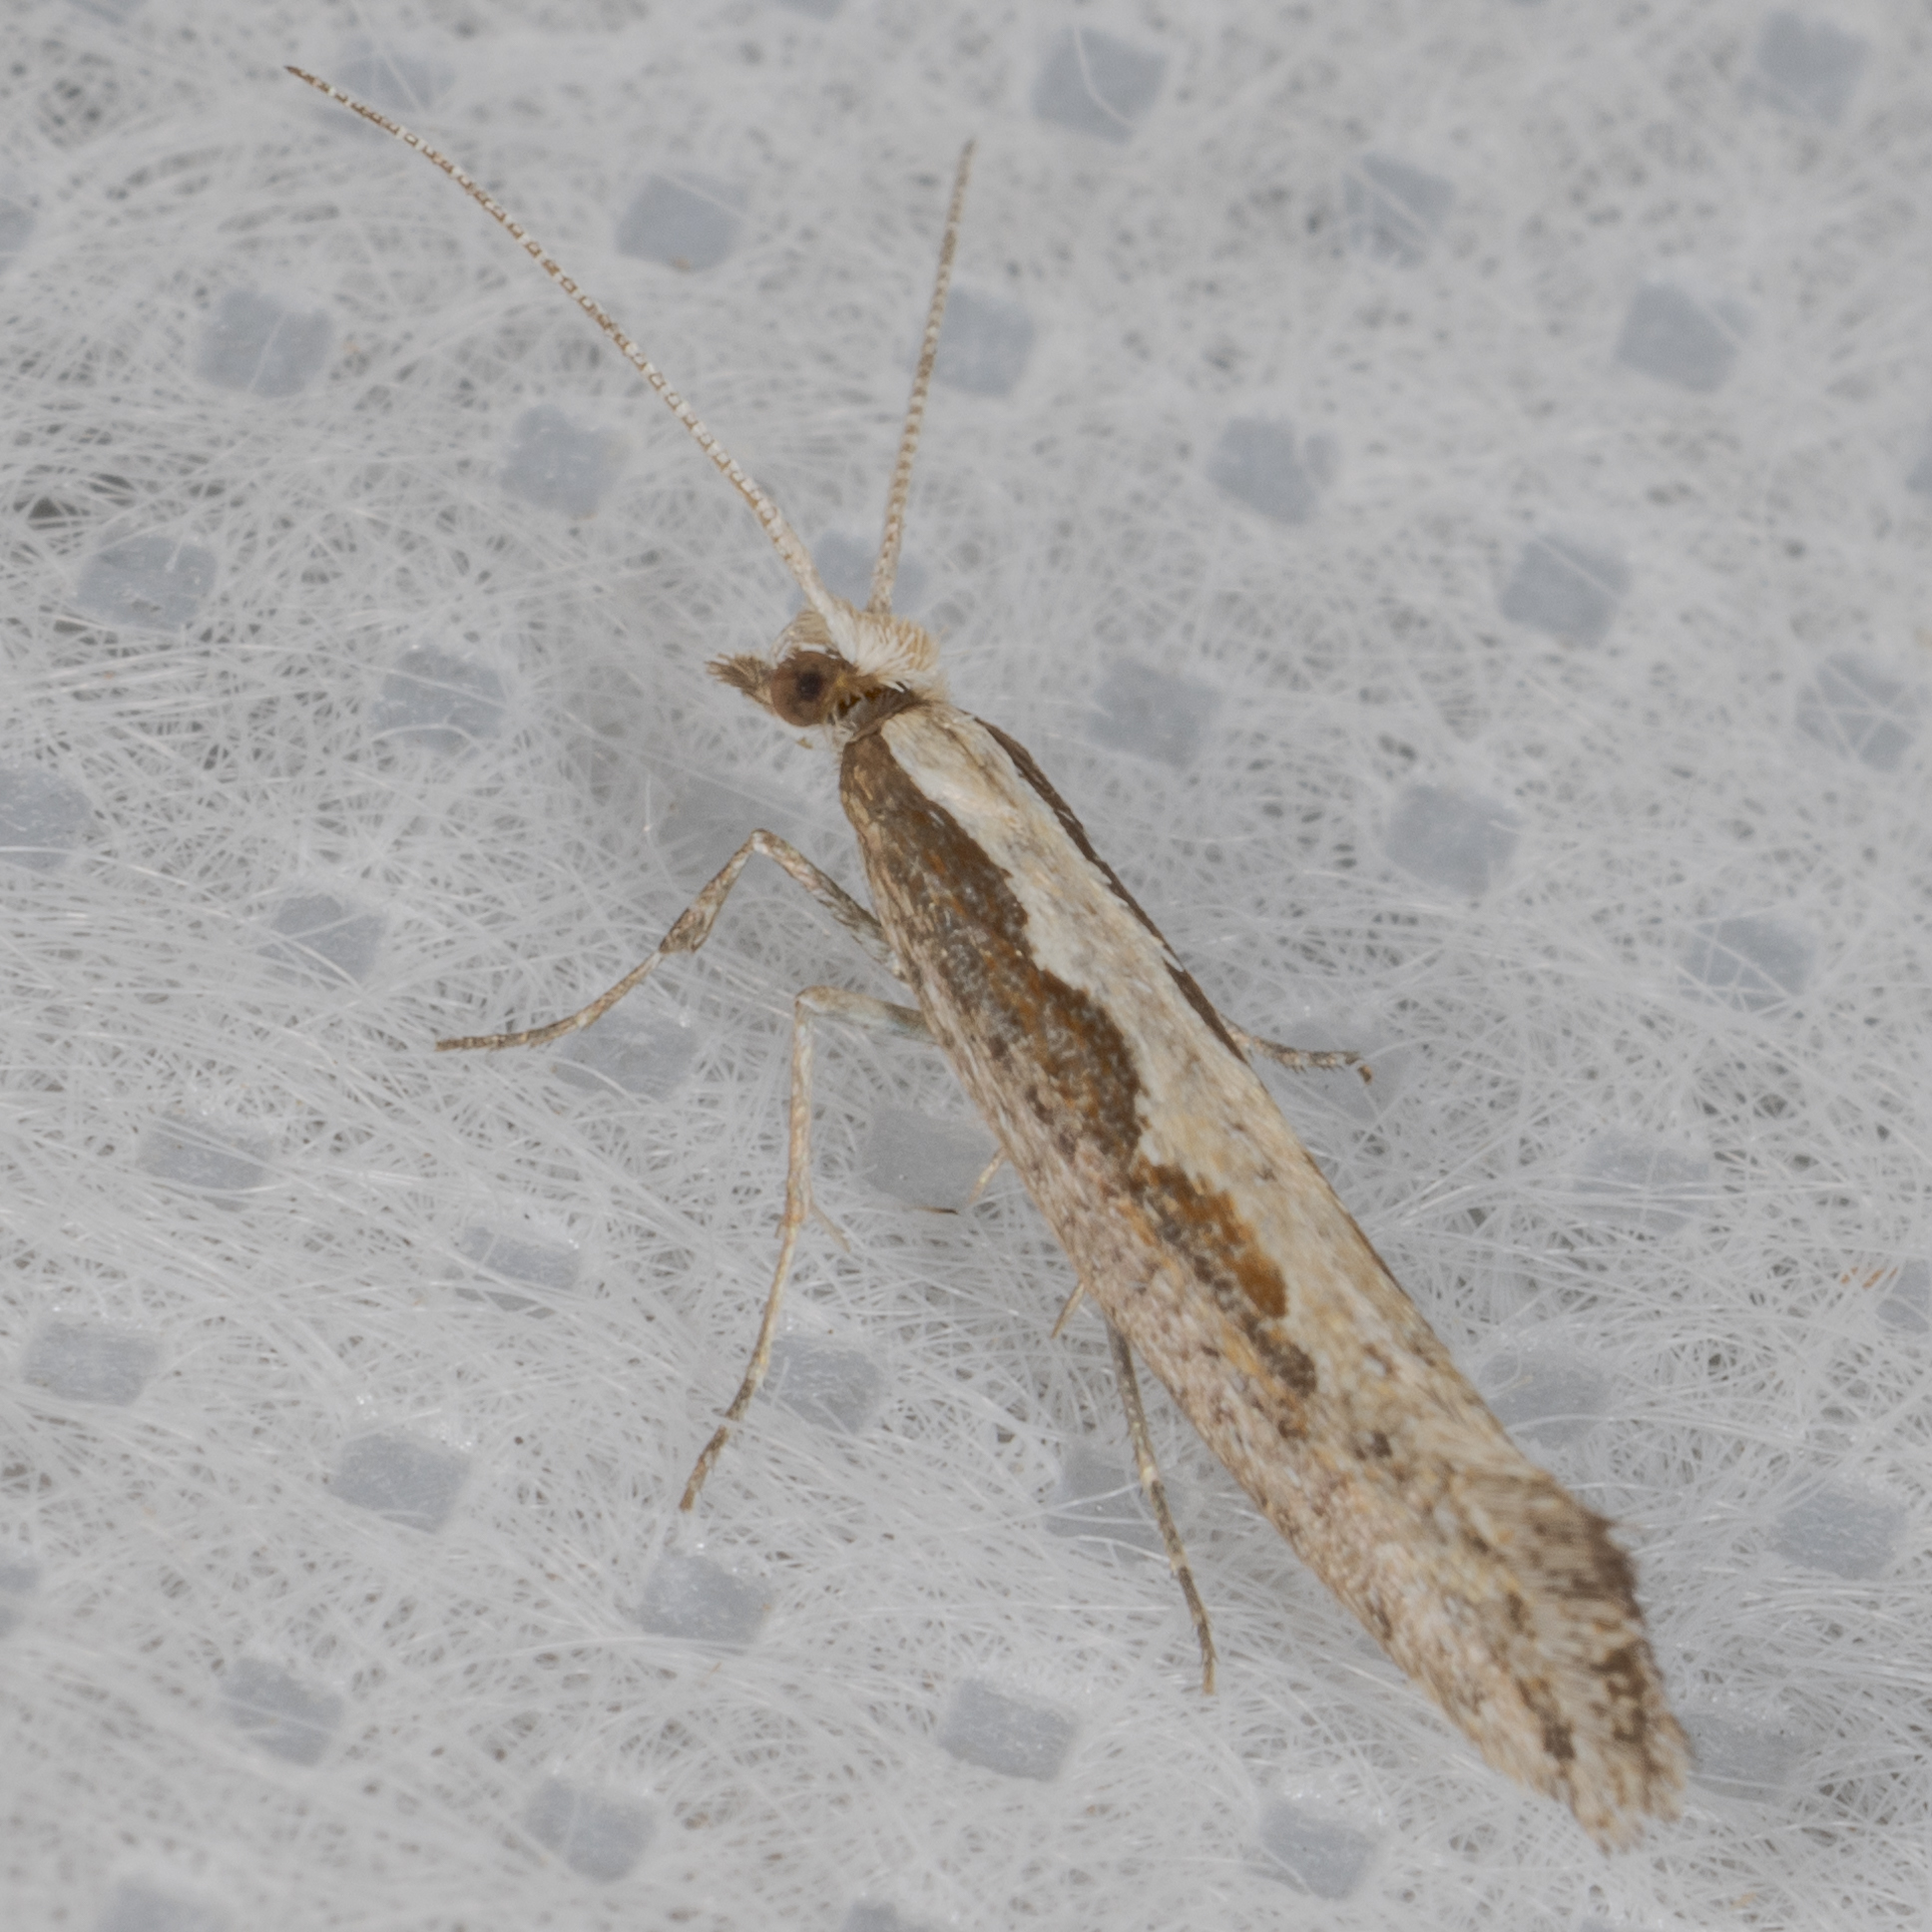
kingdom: Animalia
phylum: Arthropoda
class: Insecta
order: Lepidoptera
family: Plutellidae
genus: Plutella
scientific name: Plutella xylostella
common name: Diamond-back moth
